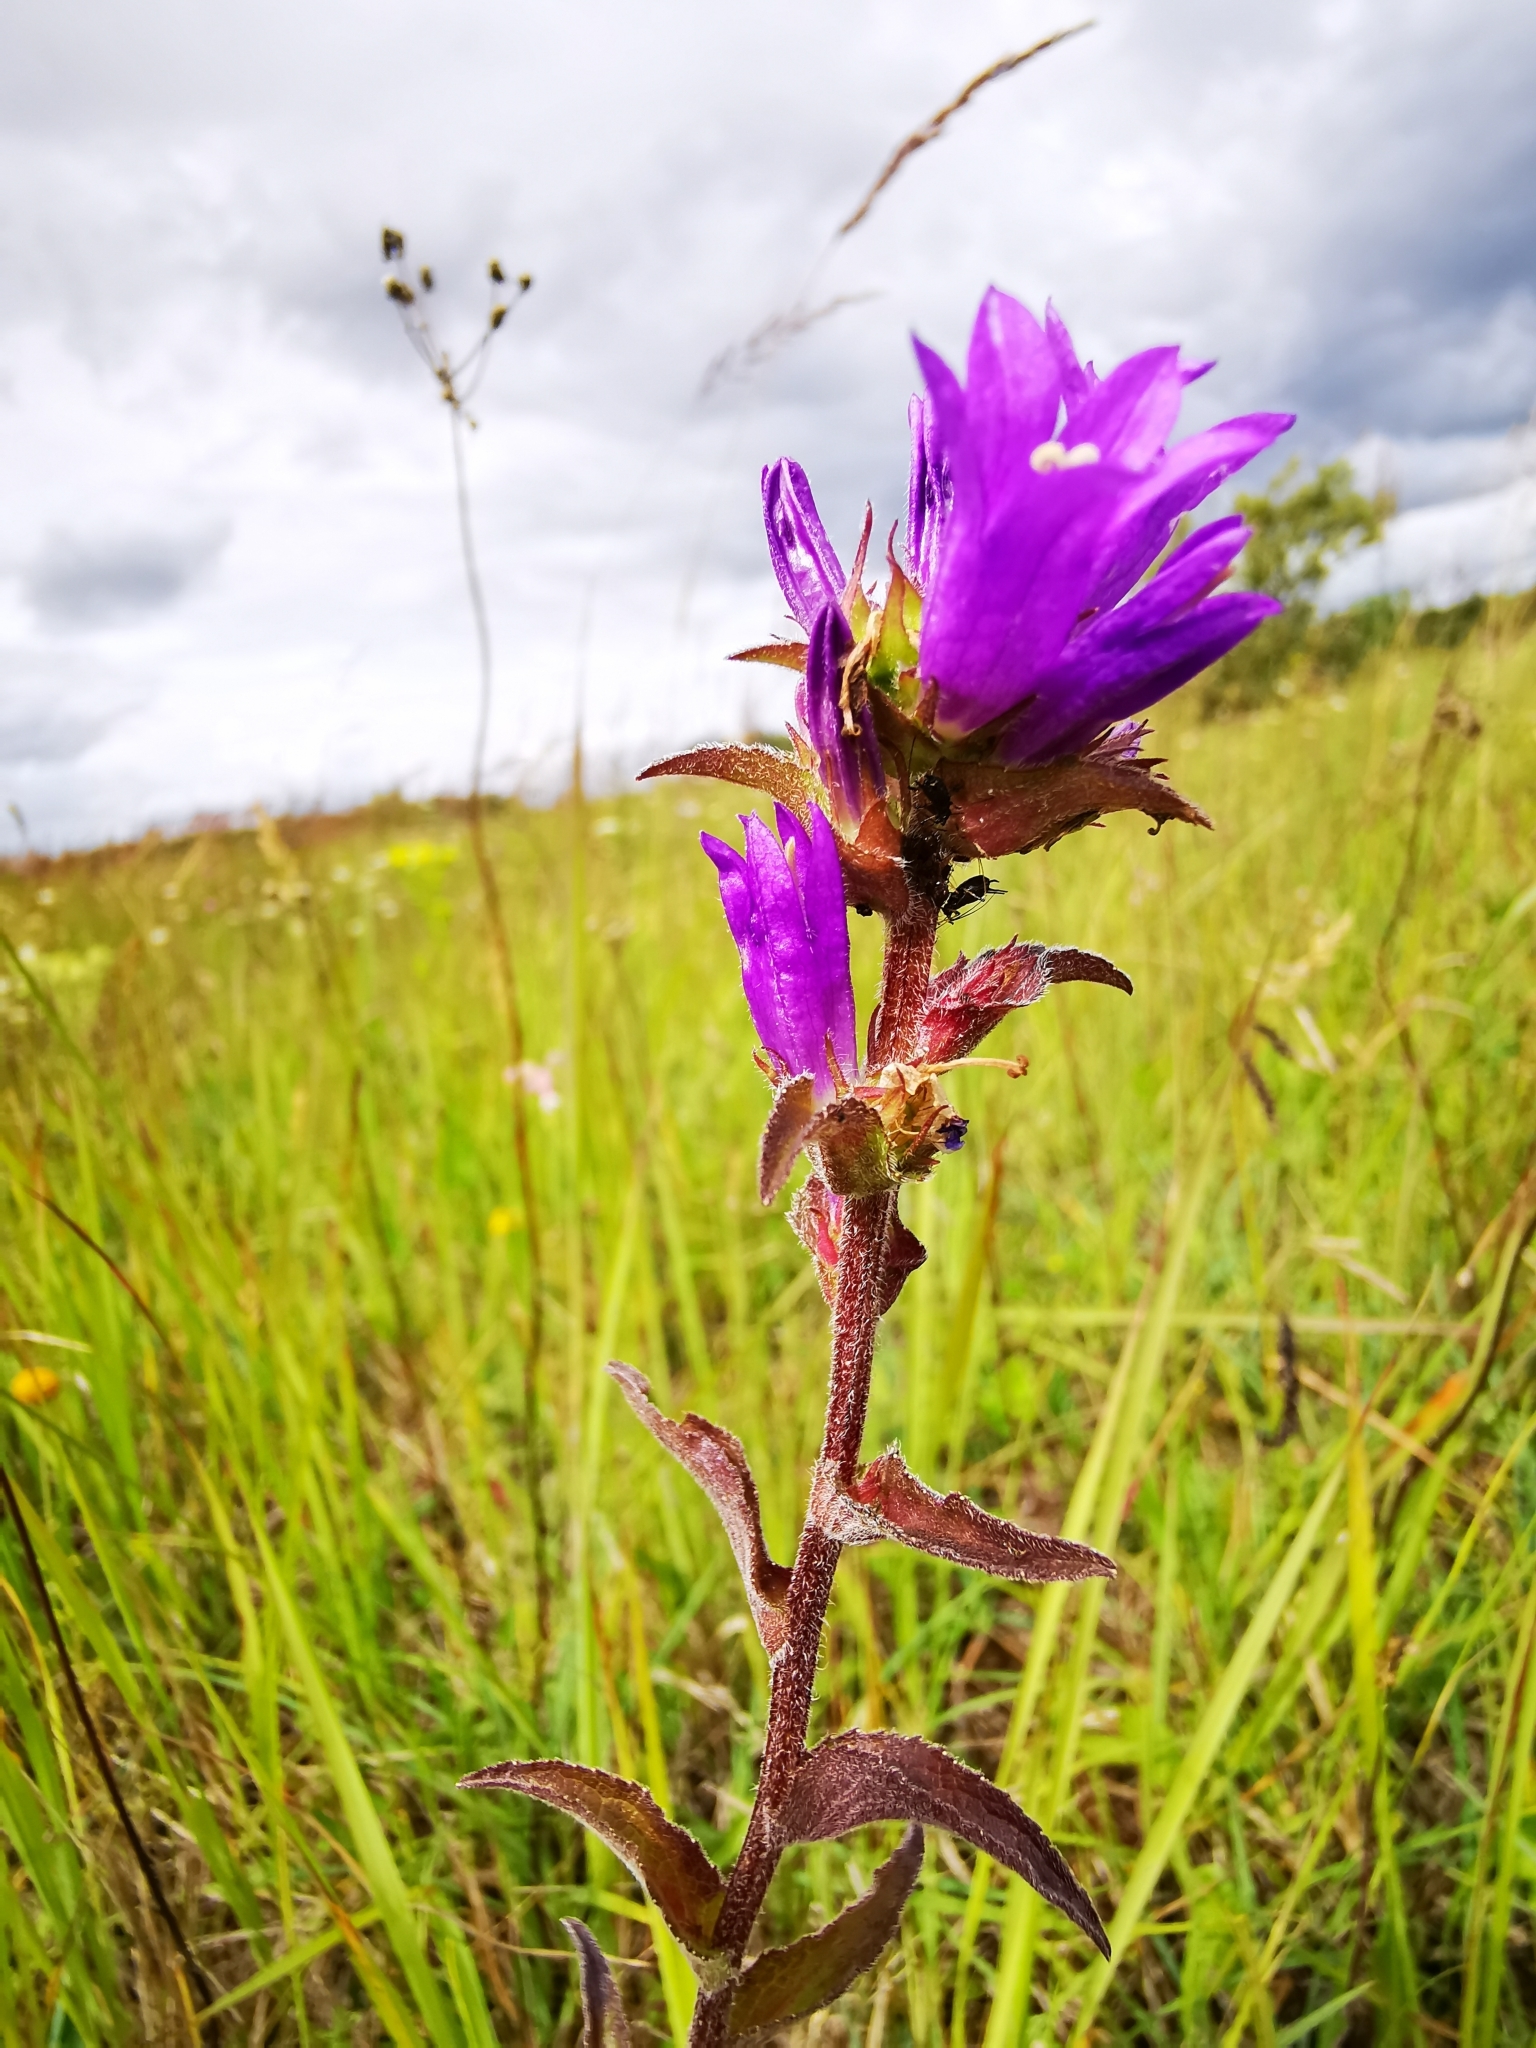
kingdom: Plantae
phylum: Tracheophyta
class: Magnoliopsida
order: Asterales
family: Campanulaceae
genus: Campanula
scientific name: Campanula glomerata
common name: Clustered bellflower
